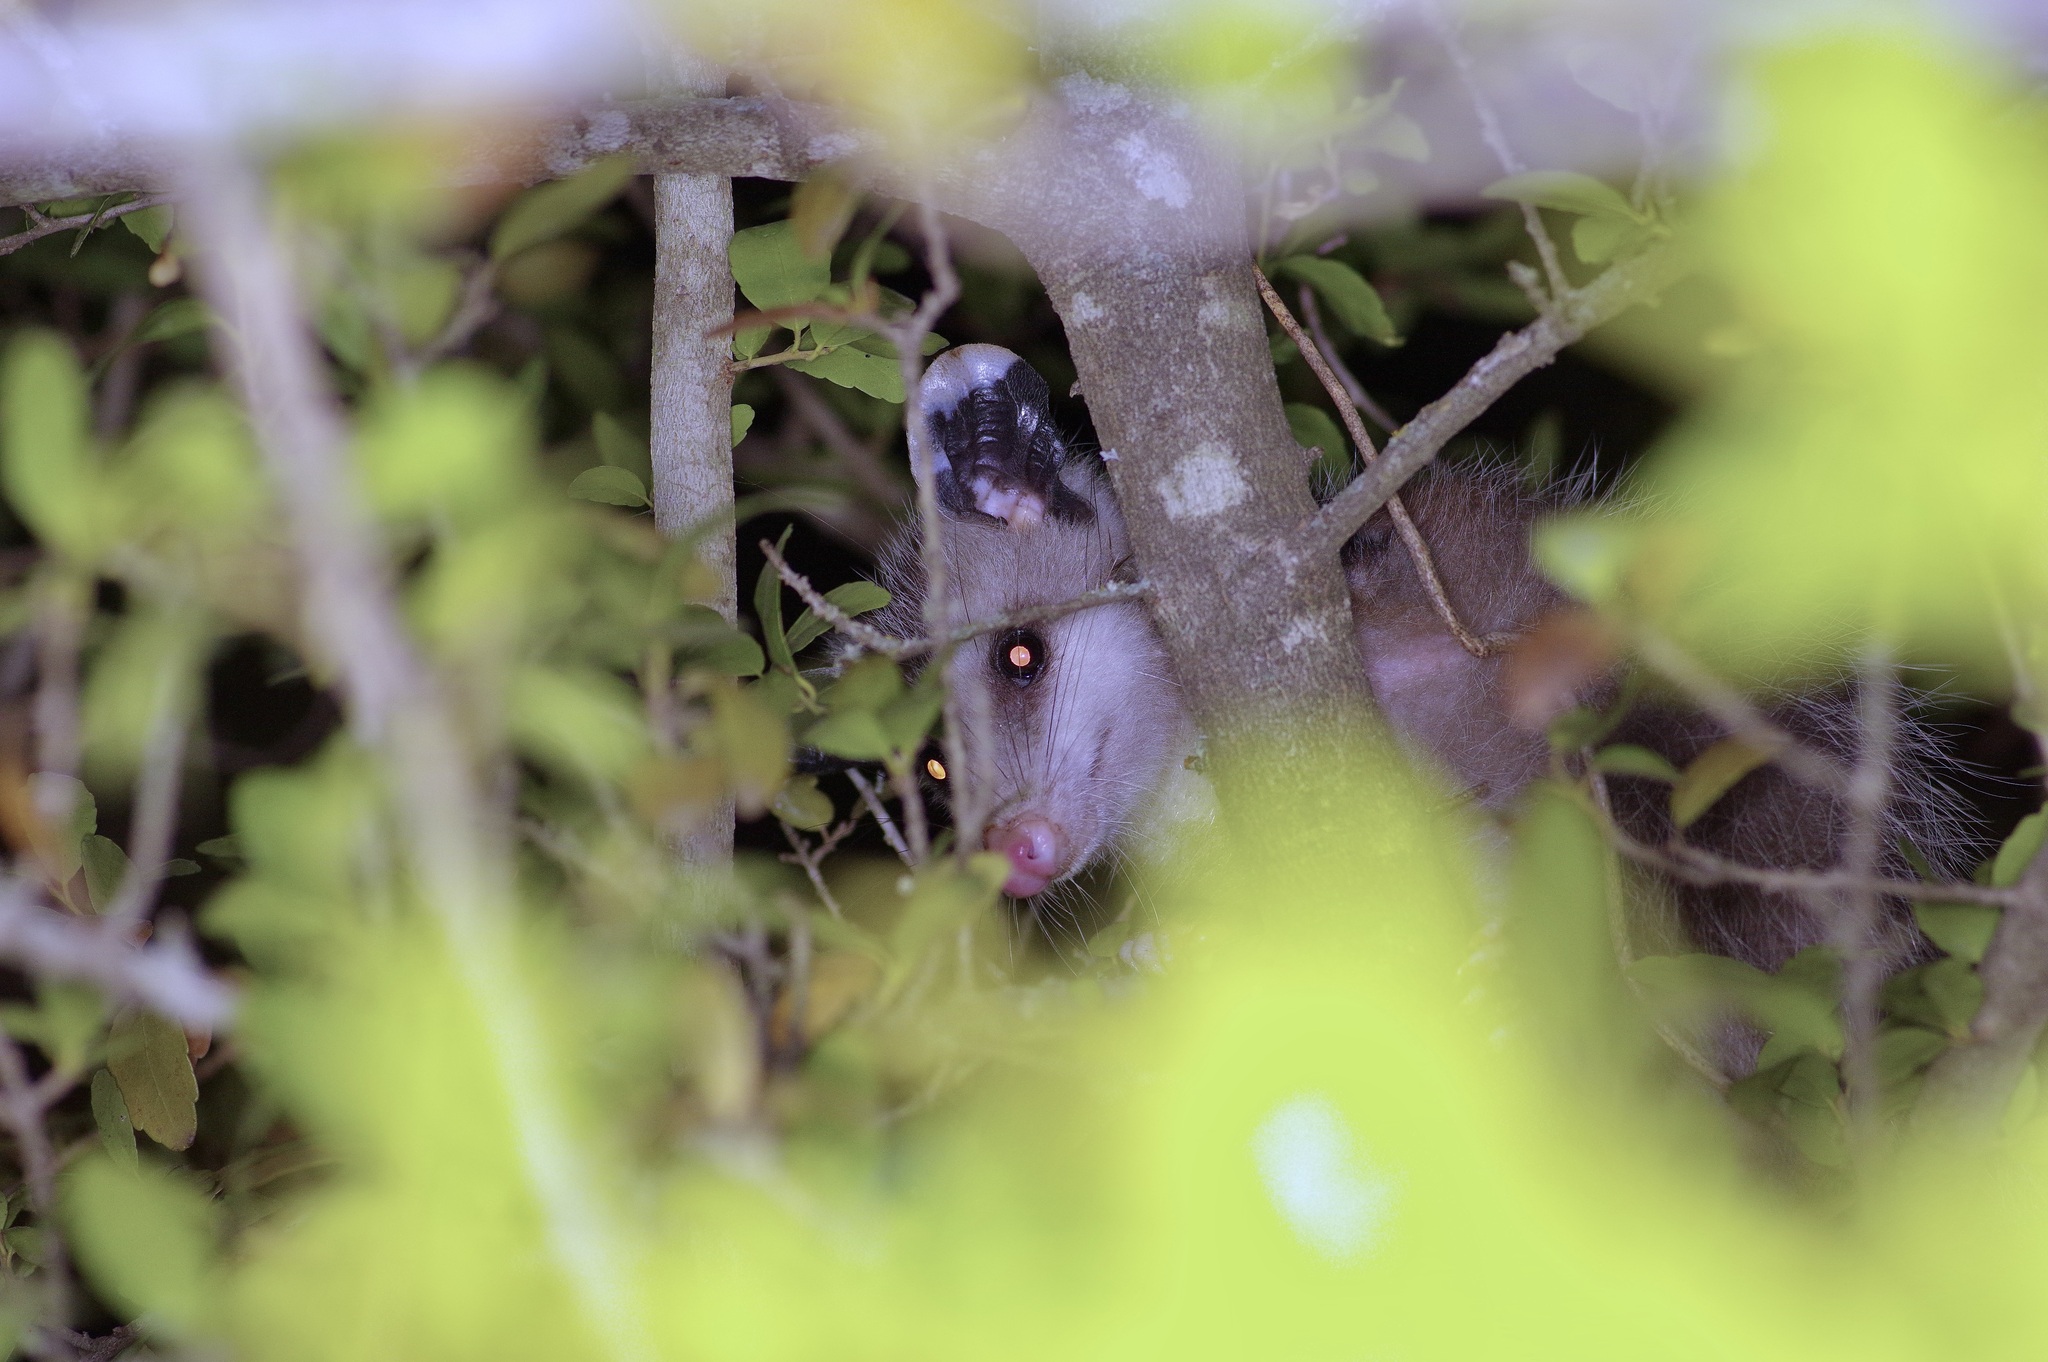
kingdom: Animalia
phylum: Chordata
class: Mammalia
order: Didelphimorphia
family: Didelphidae
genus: Didelphis
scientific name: Didelphis virginiana
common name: Virginia opossum
